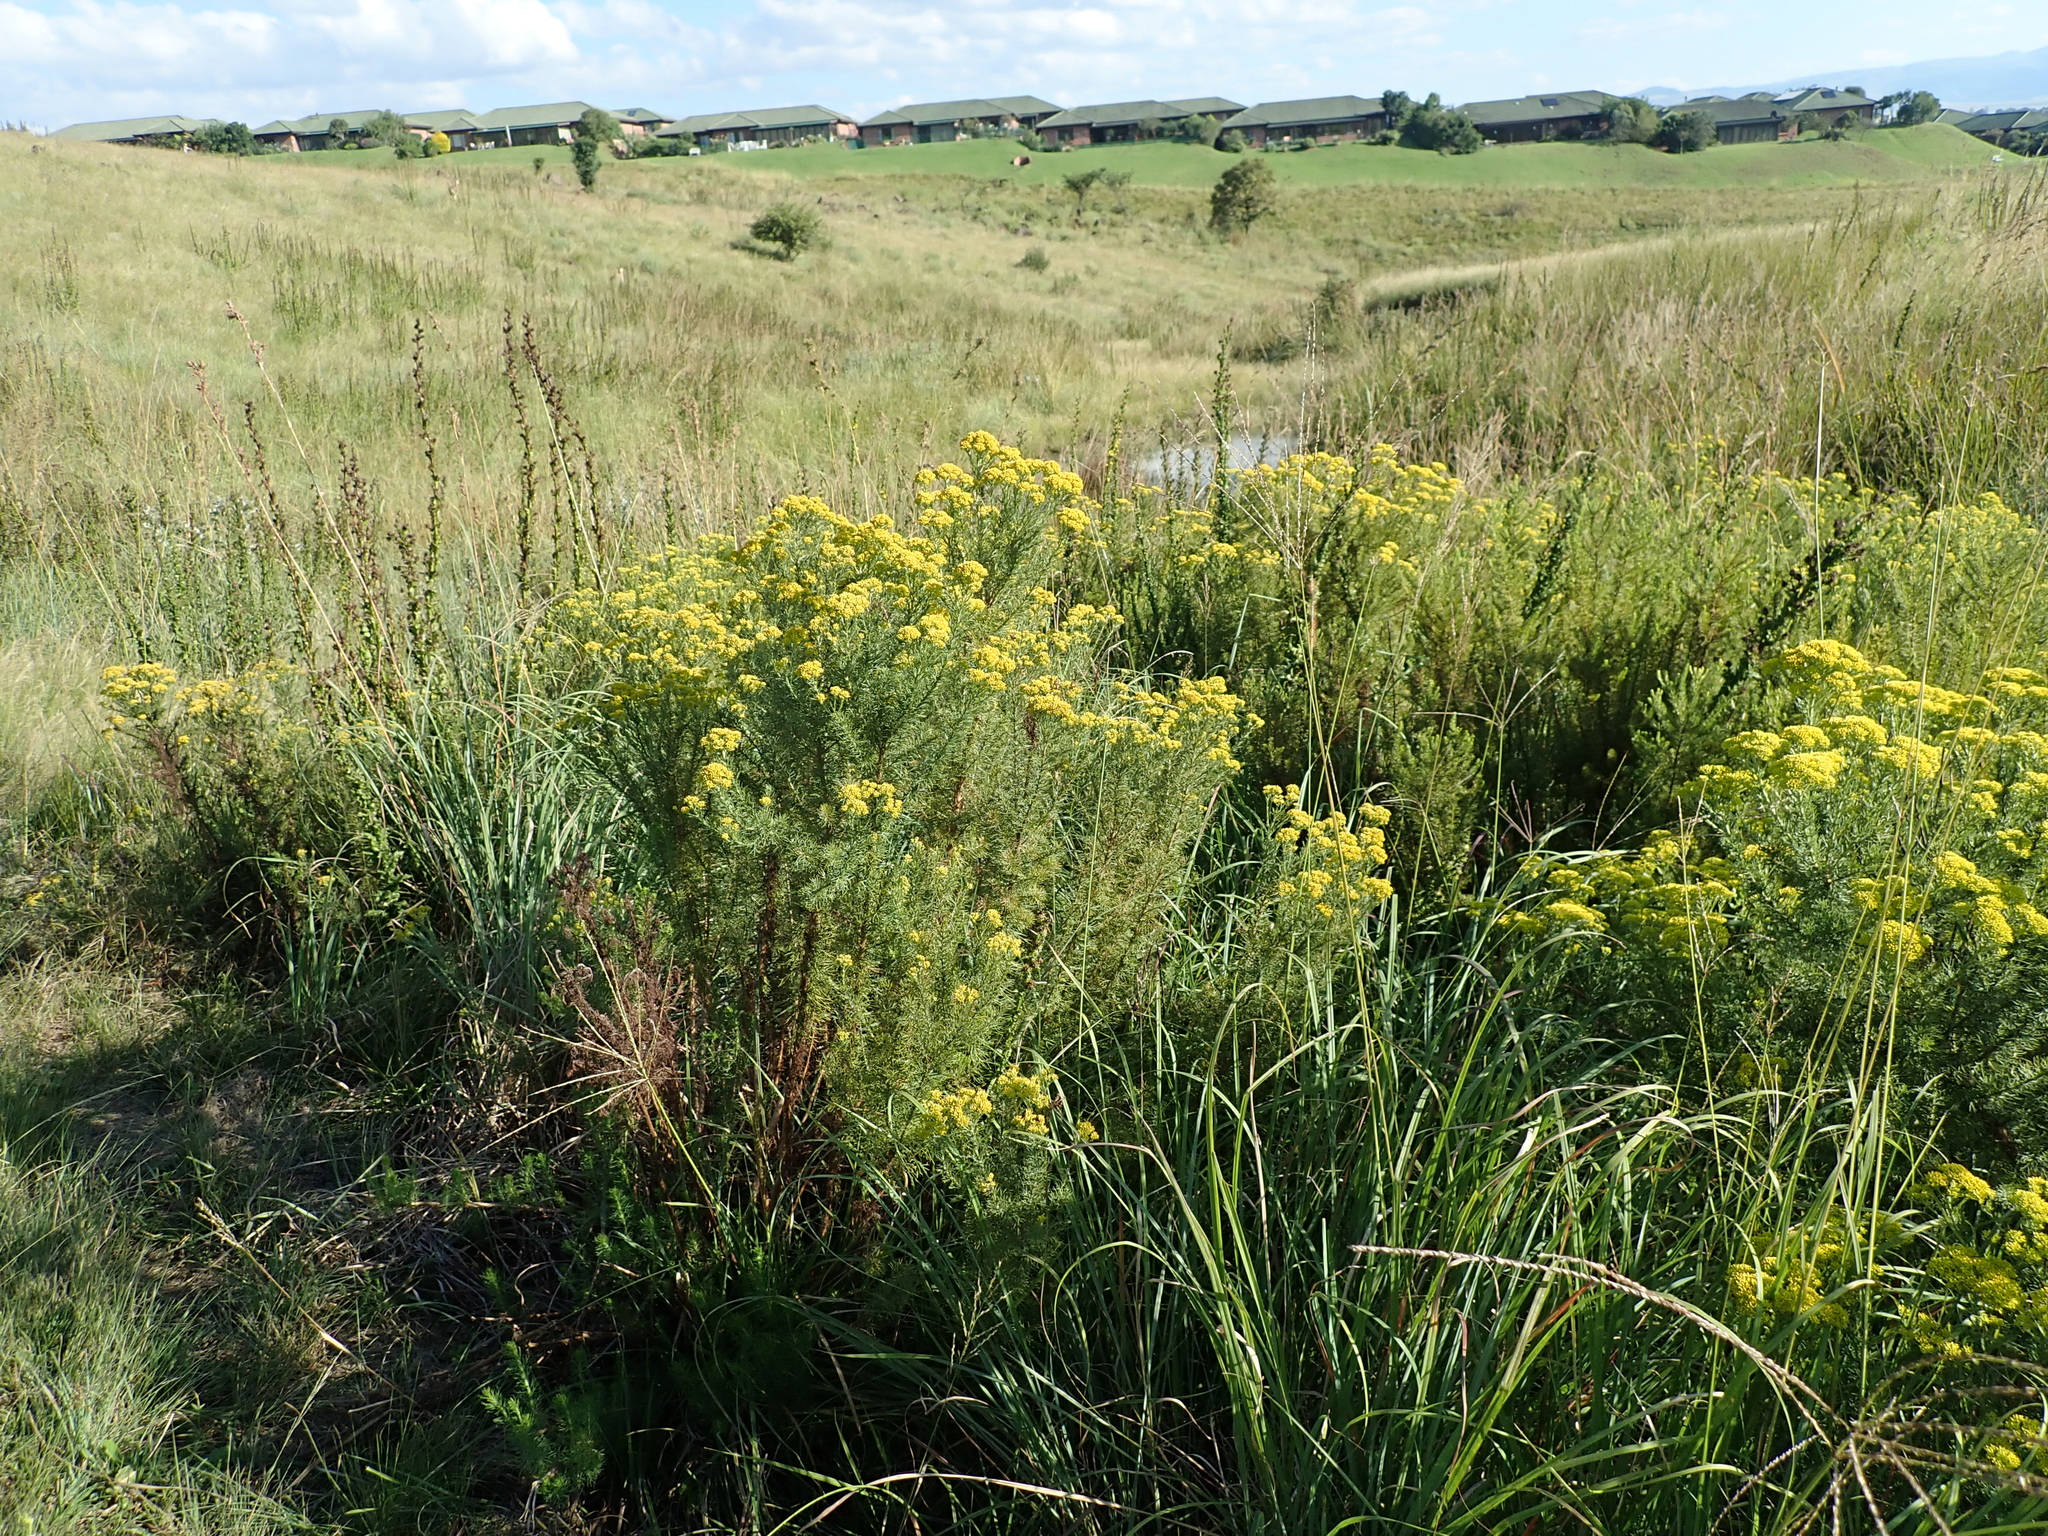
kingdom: Plantae
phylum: Tracheophyta
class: Magnoliopsida
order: Asterales
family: Asteraceae
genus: Phymaspermum
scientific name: Phymaspermum acerosum
